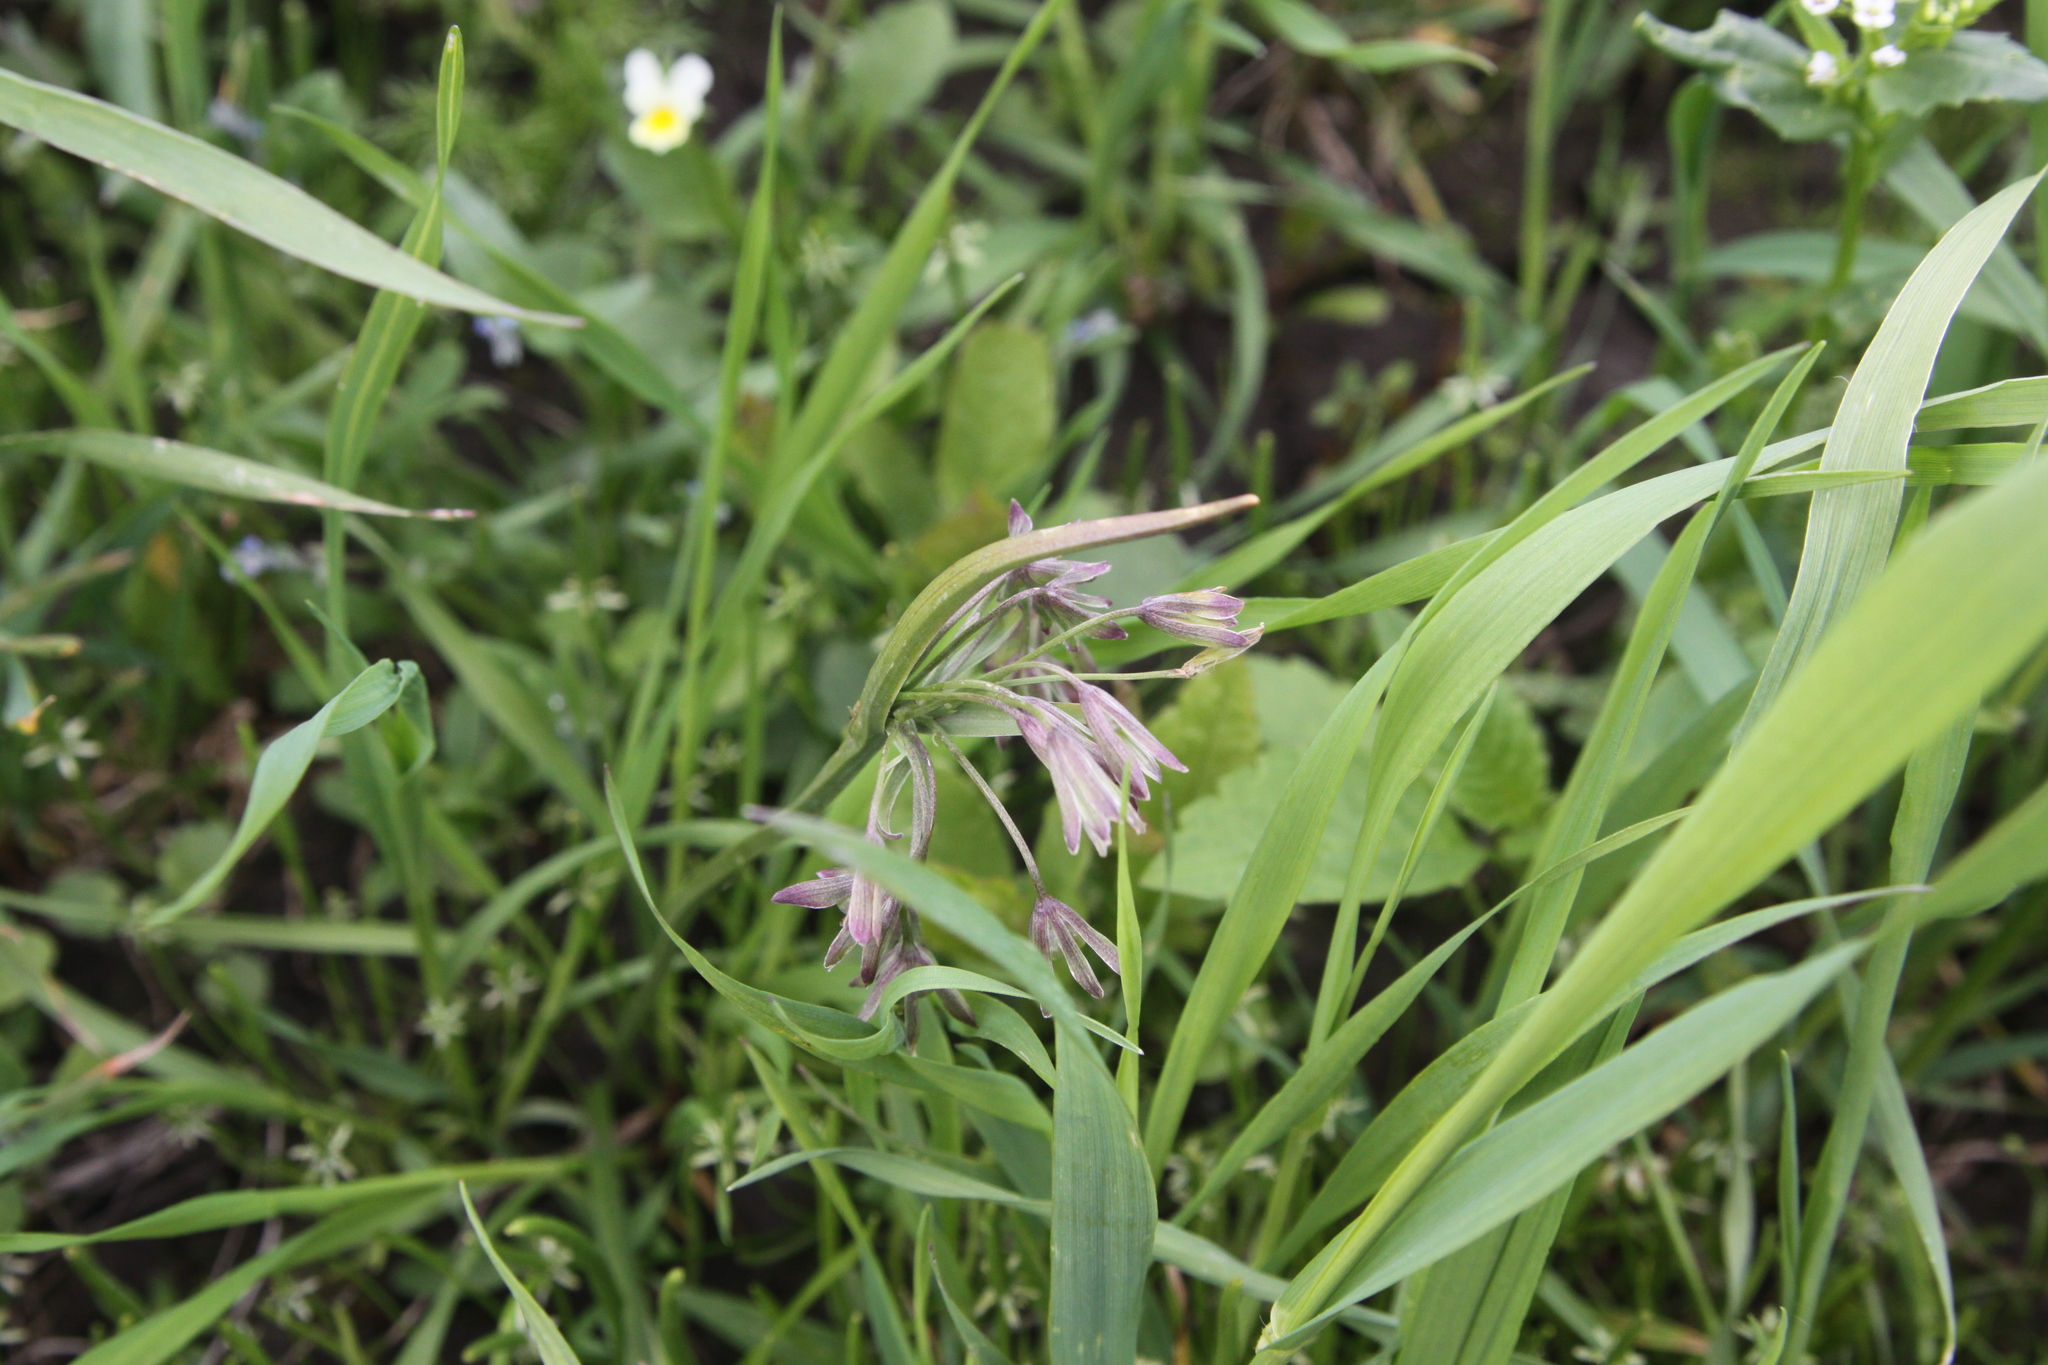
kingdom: Plantae
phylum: Tracheophyta
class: Liliopsida
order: Liliales
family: Liliaceae
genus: Gagea
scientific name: Gagea fragifera
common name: Lily
